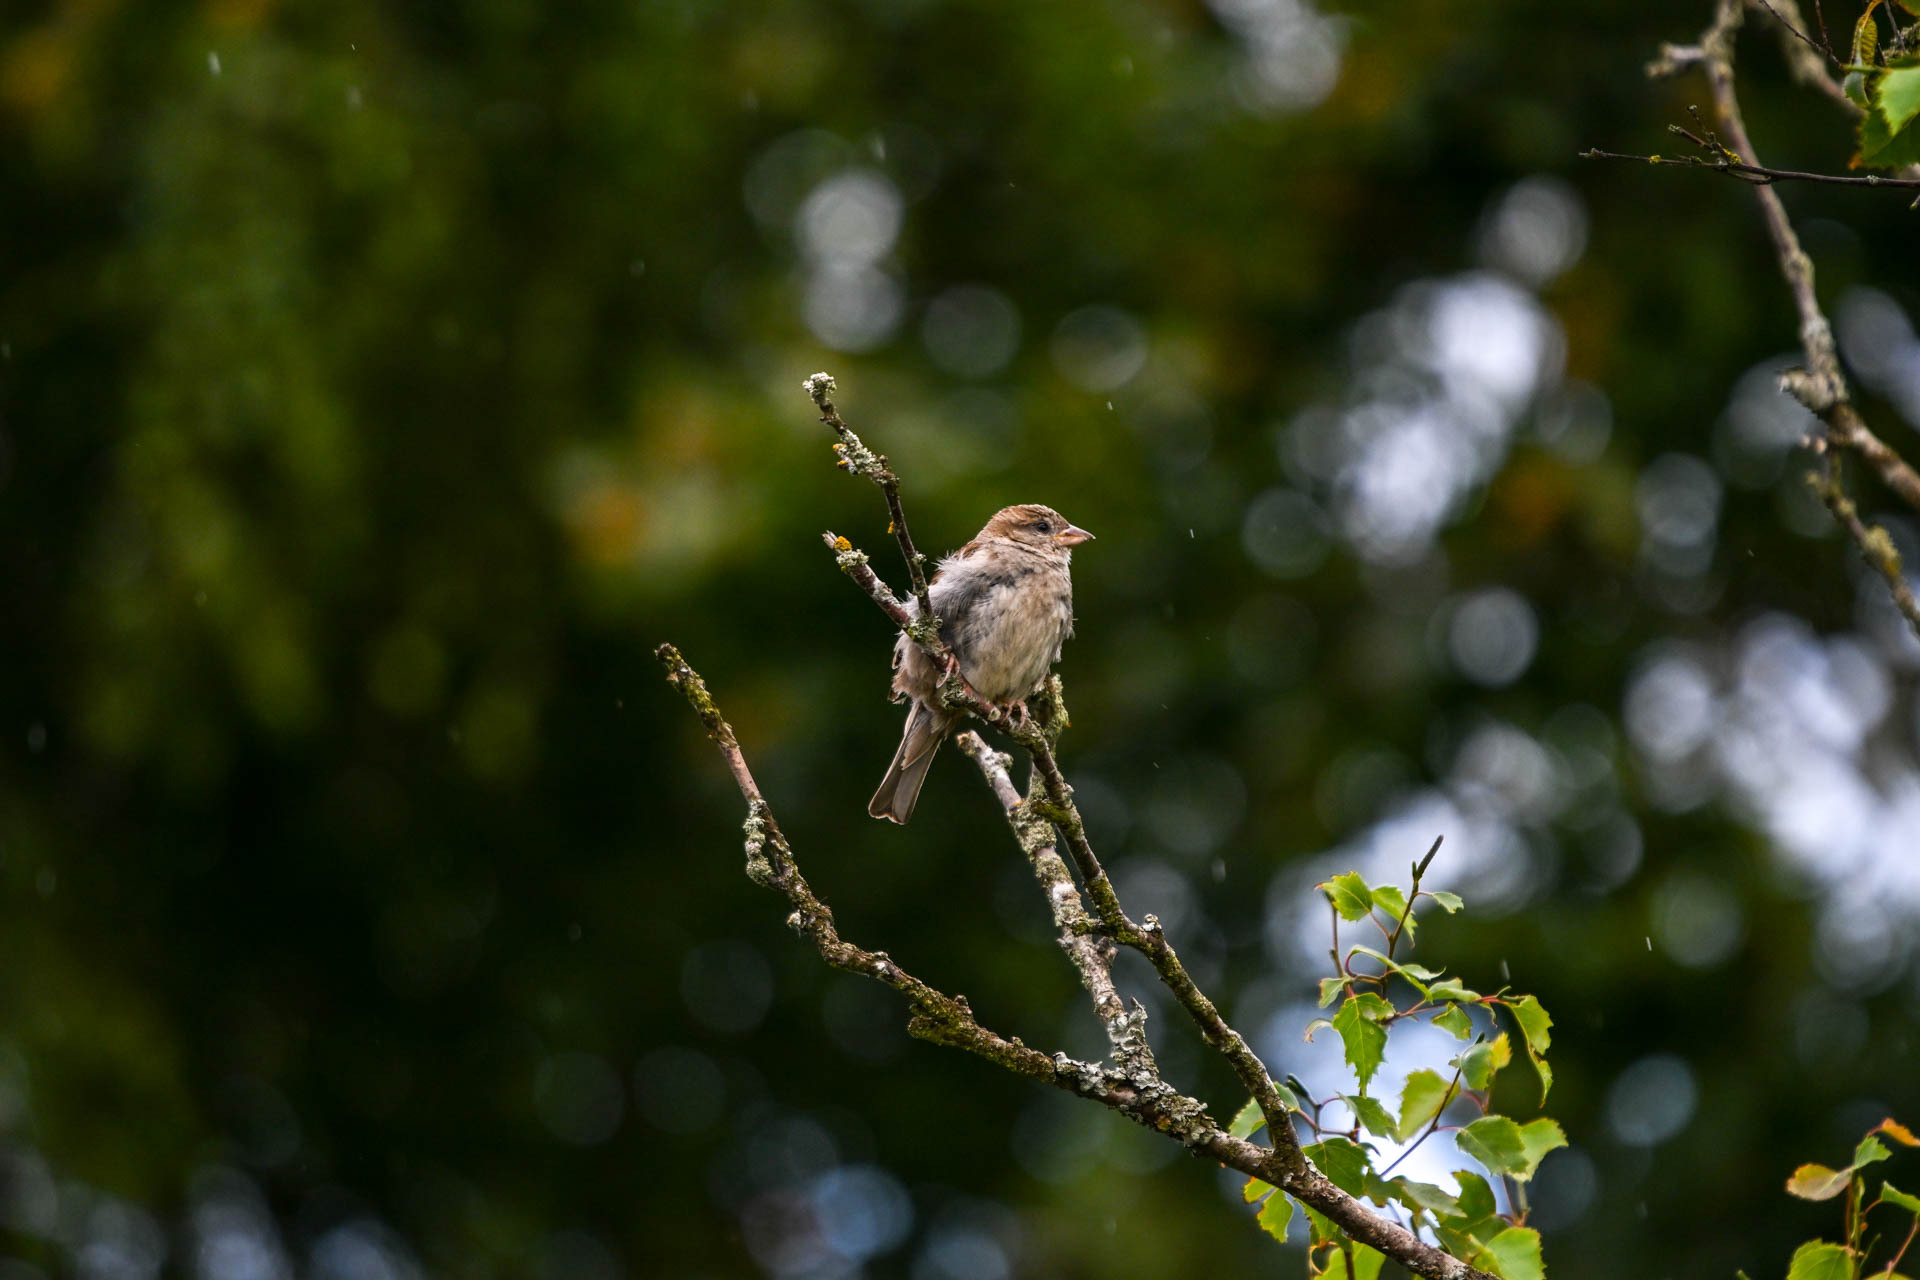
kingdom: Animalia
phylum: Chordata
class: Aves
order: Passeriformes
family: Passeridae
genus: Passer
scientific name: Passer domesticus
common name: House sparrow
